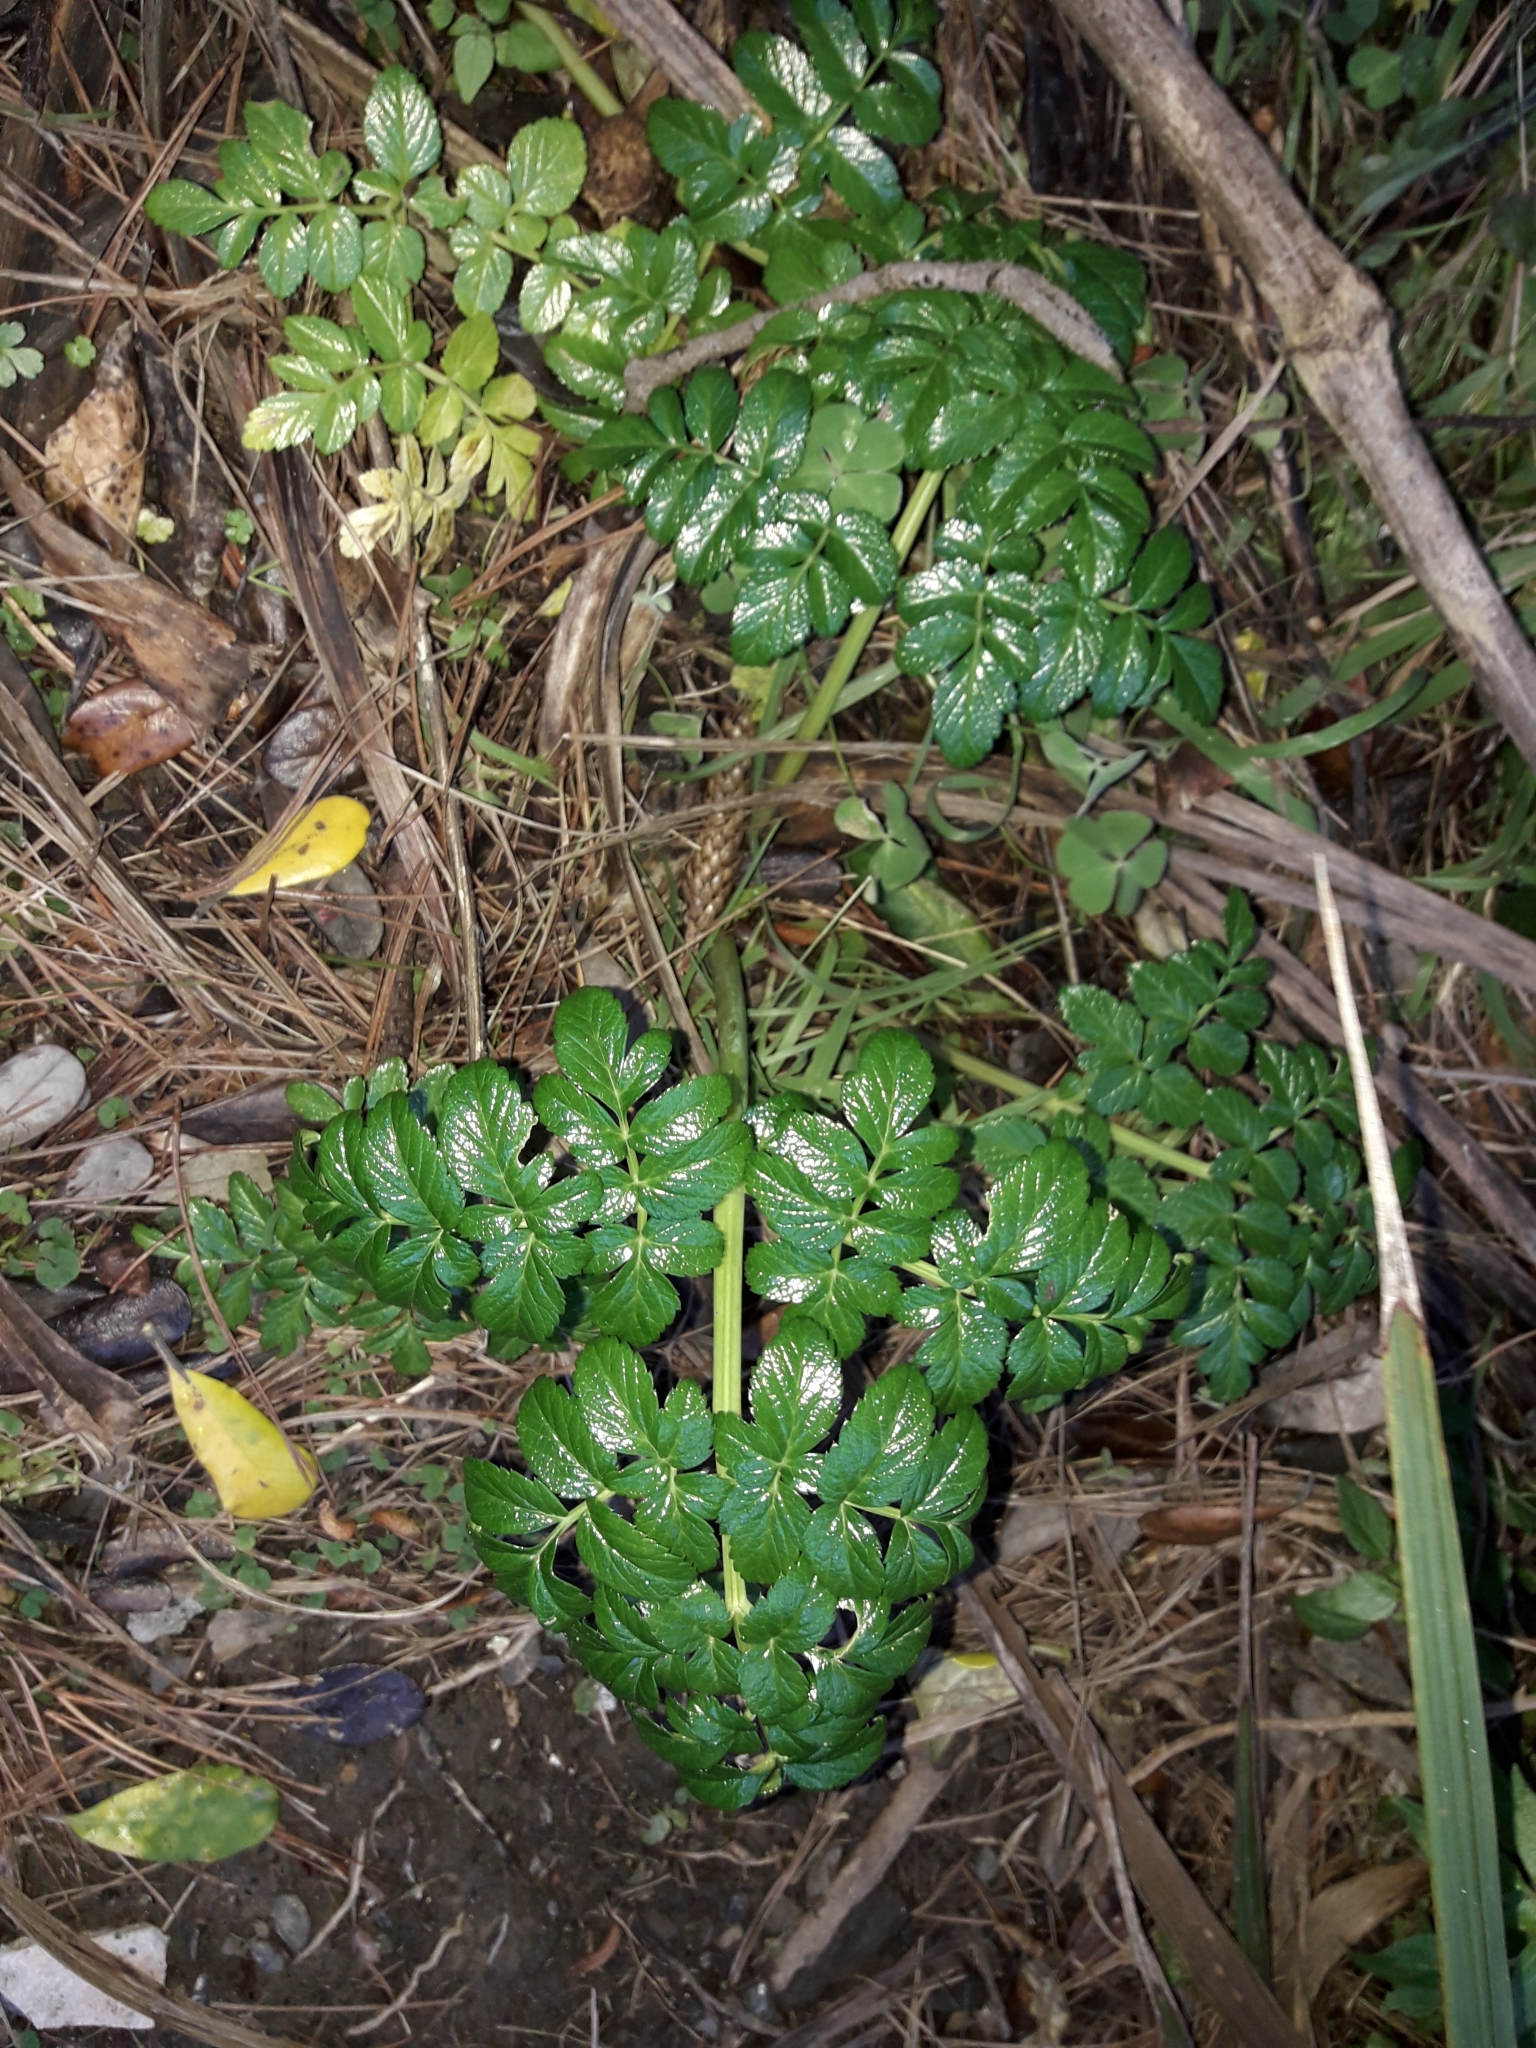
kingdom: Plantae
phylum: Tracheophyta
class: Magnoliopsida
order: Apiales
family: Apiaceae
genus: Angelica
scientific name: Angelica pachycarpa
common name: Portuguese angelica
